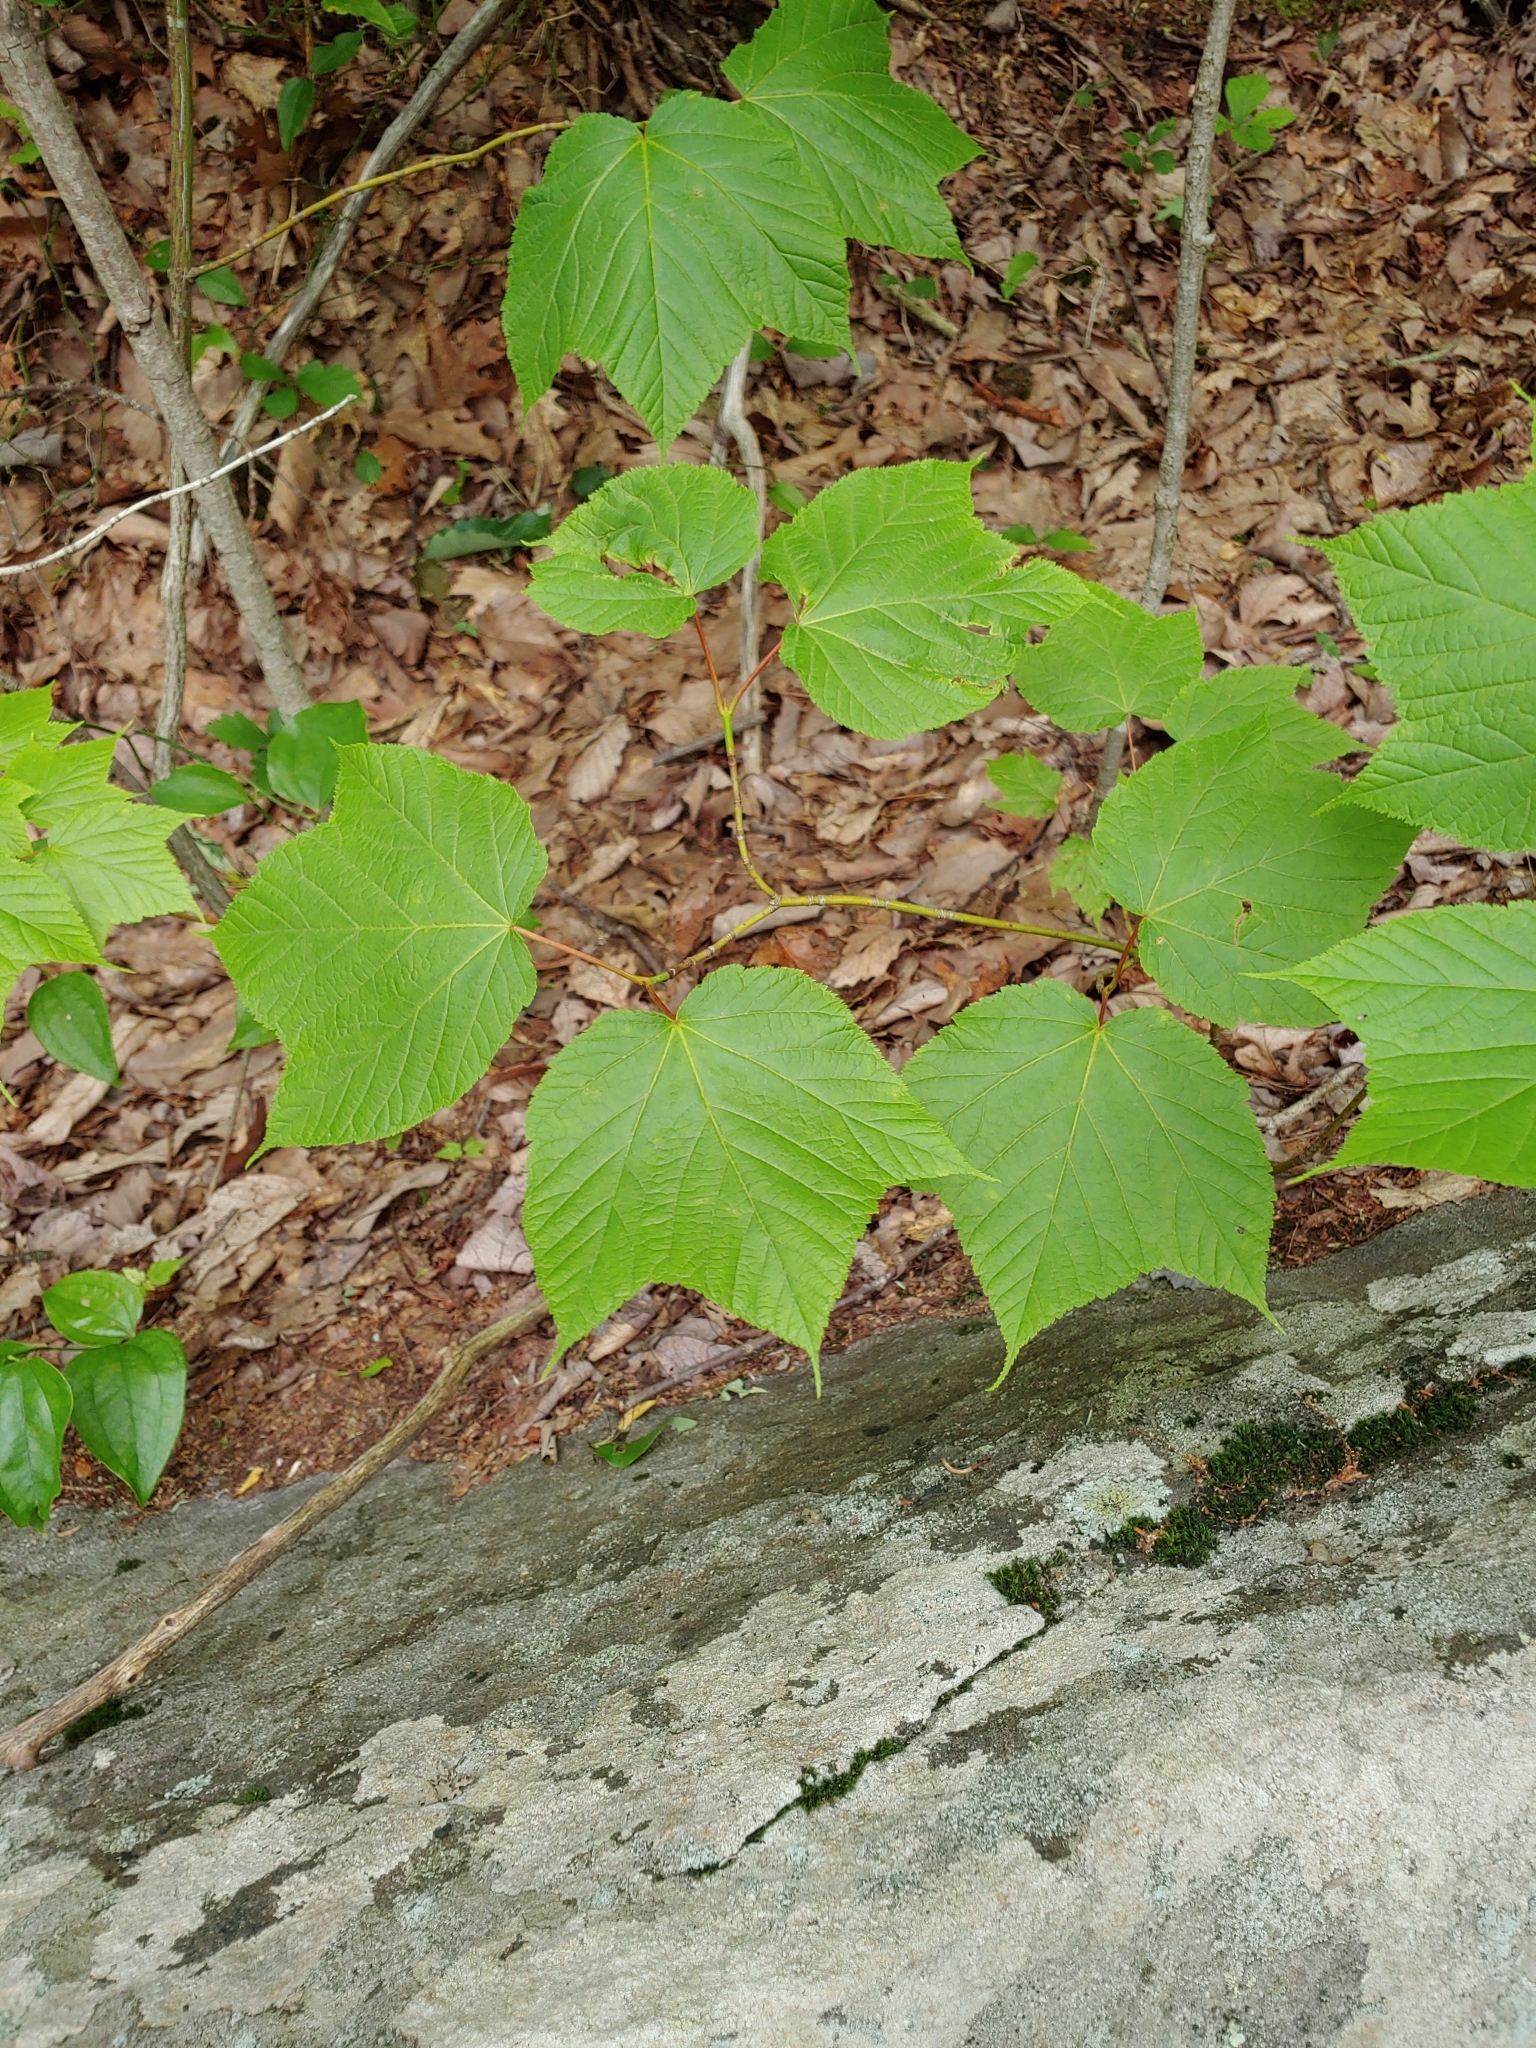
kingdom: Plantae
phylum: Tracheophyta
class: Magnoliopsida
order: Sapindales
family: Sapindaceae
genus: Acer
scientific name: Acer pensylvanicum
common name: Moosewood
